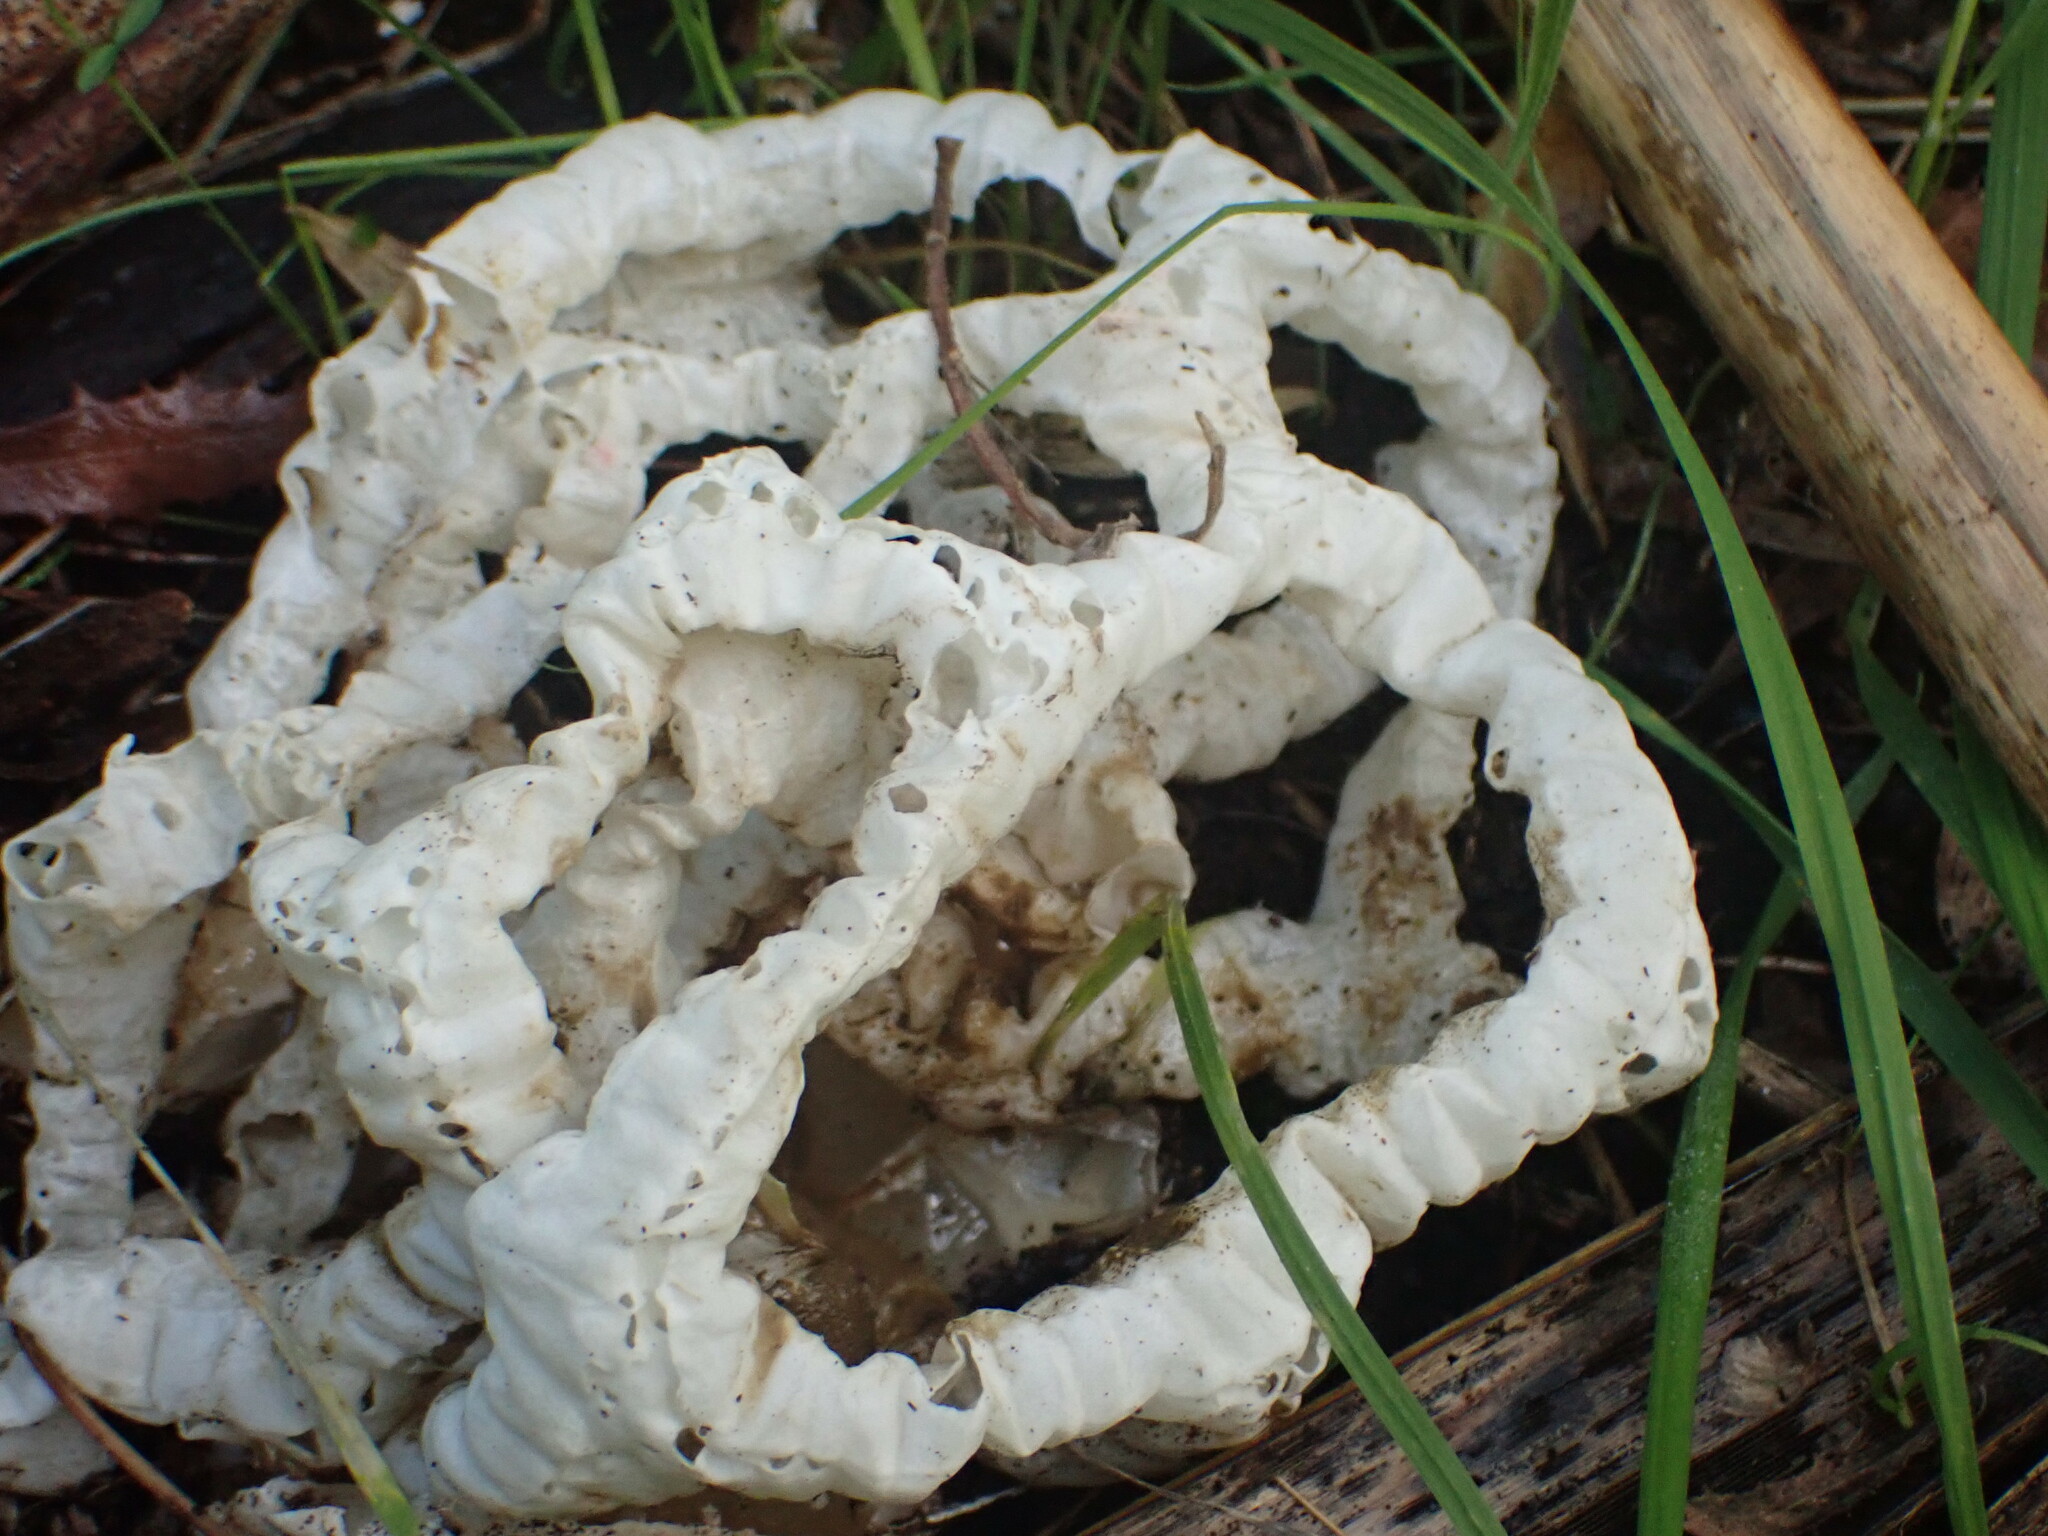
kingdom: Fungi
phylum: Basidiomycota
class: Agaricomycetes
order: Phallales
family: Phallaceae
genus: Ileodictyon
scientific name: Ileodictyon cibarium
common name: Basket fungus
